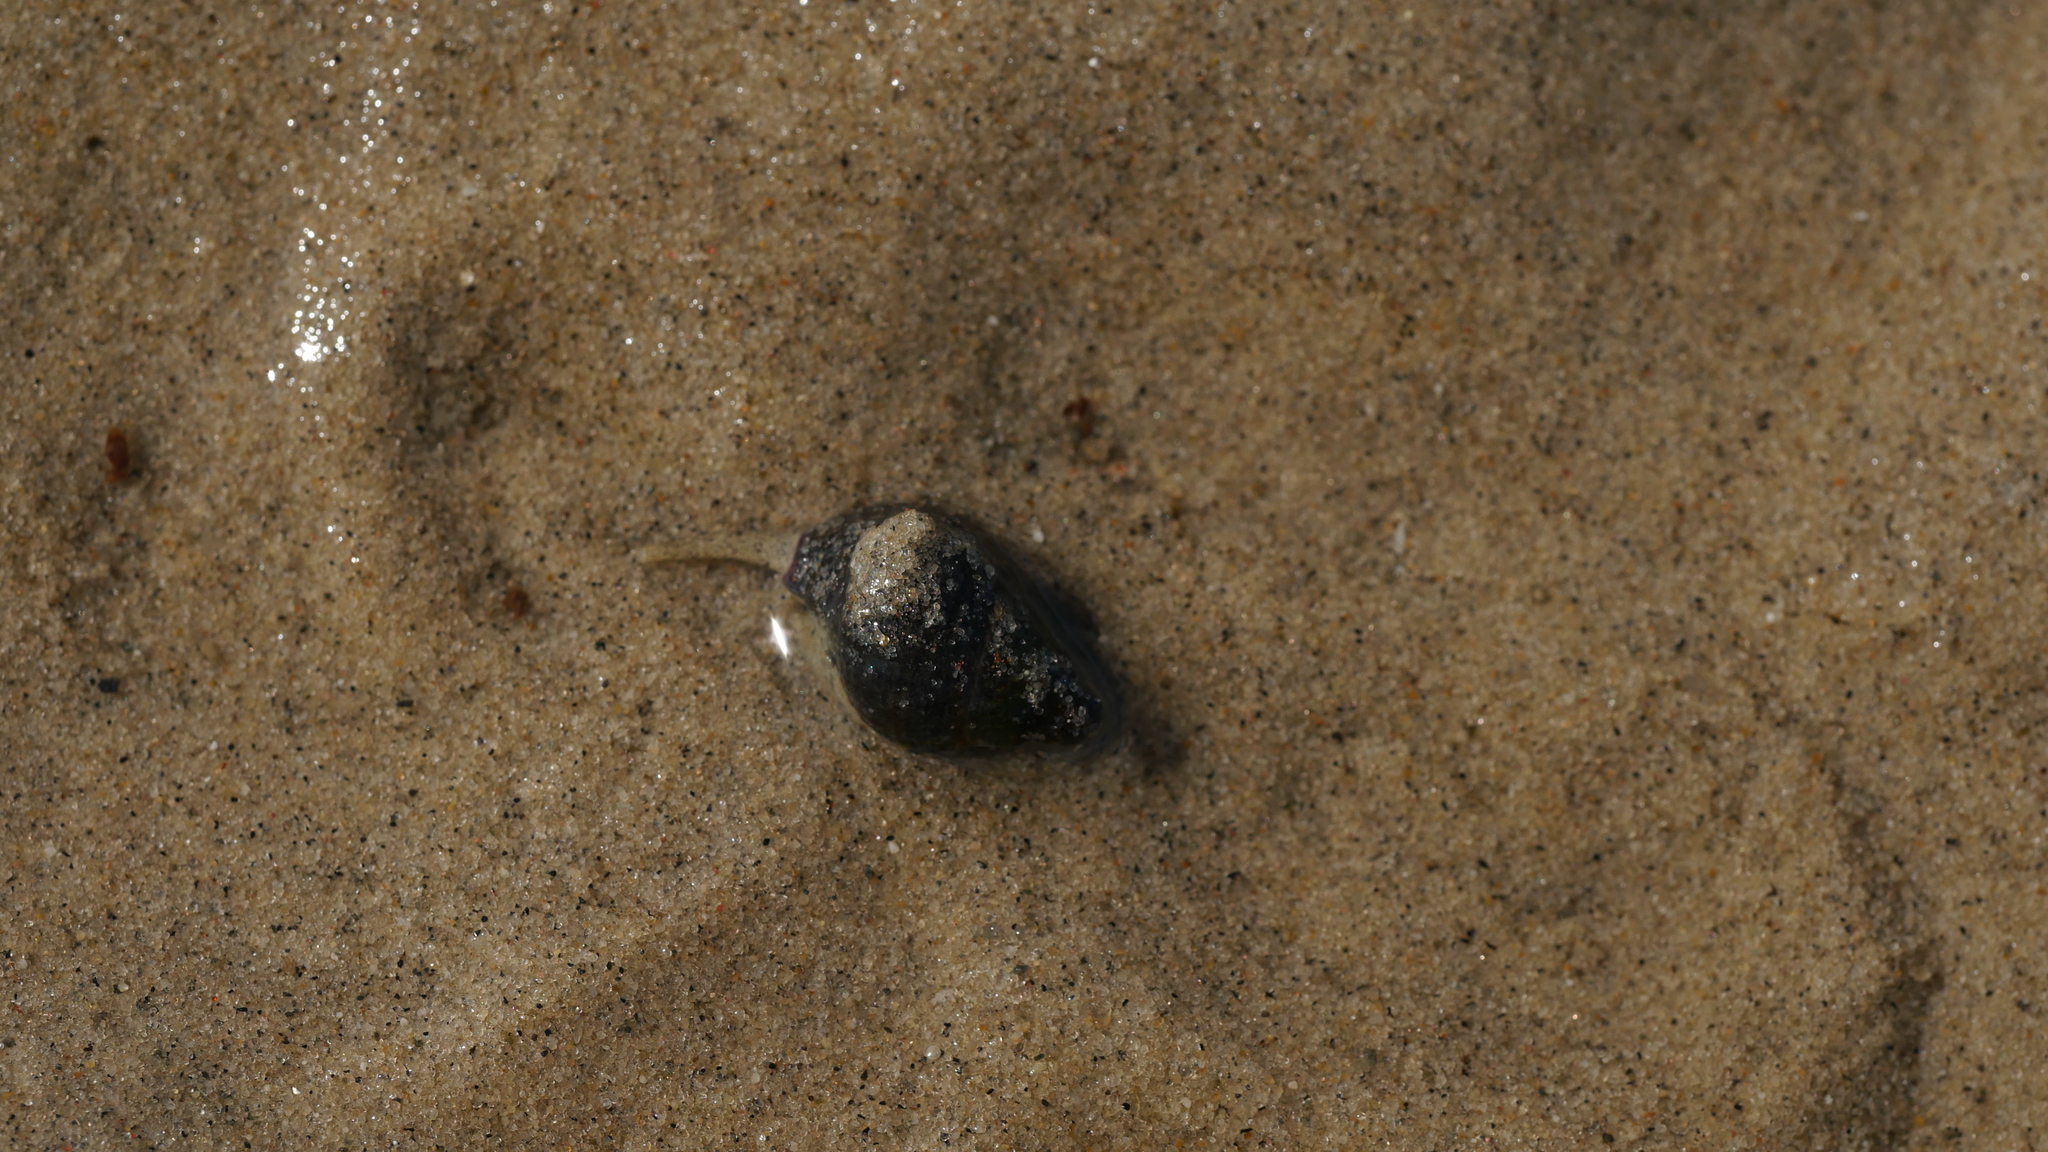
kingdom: Animalia
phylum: Mollusca
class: Gastropoda
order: Neogastropoda
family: Nassariidae
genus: Ilyanassa
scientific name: Ilyanassa obsoleta
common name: Eastern mudsnail
